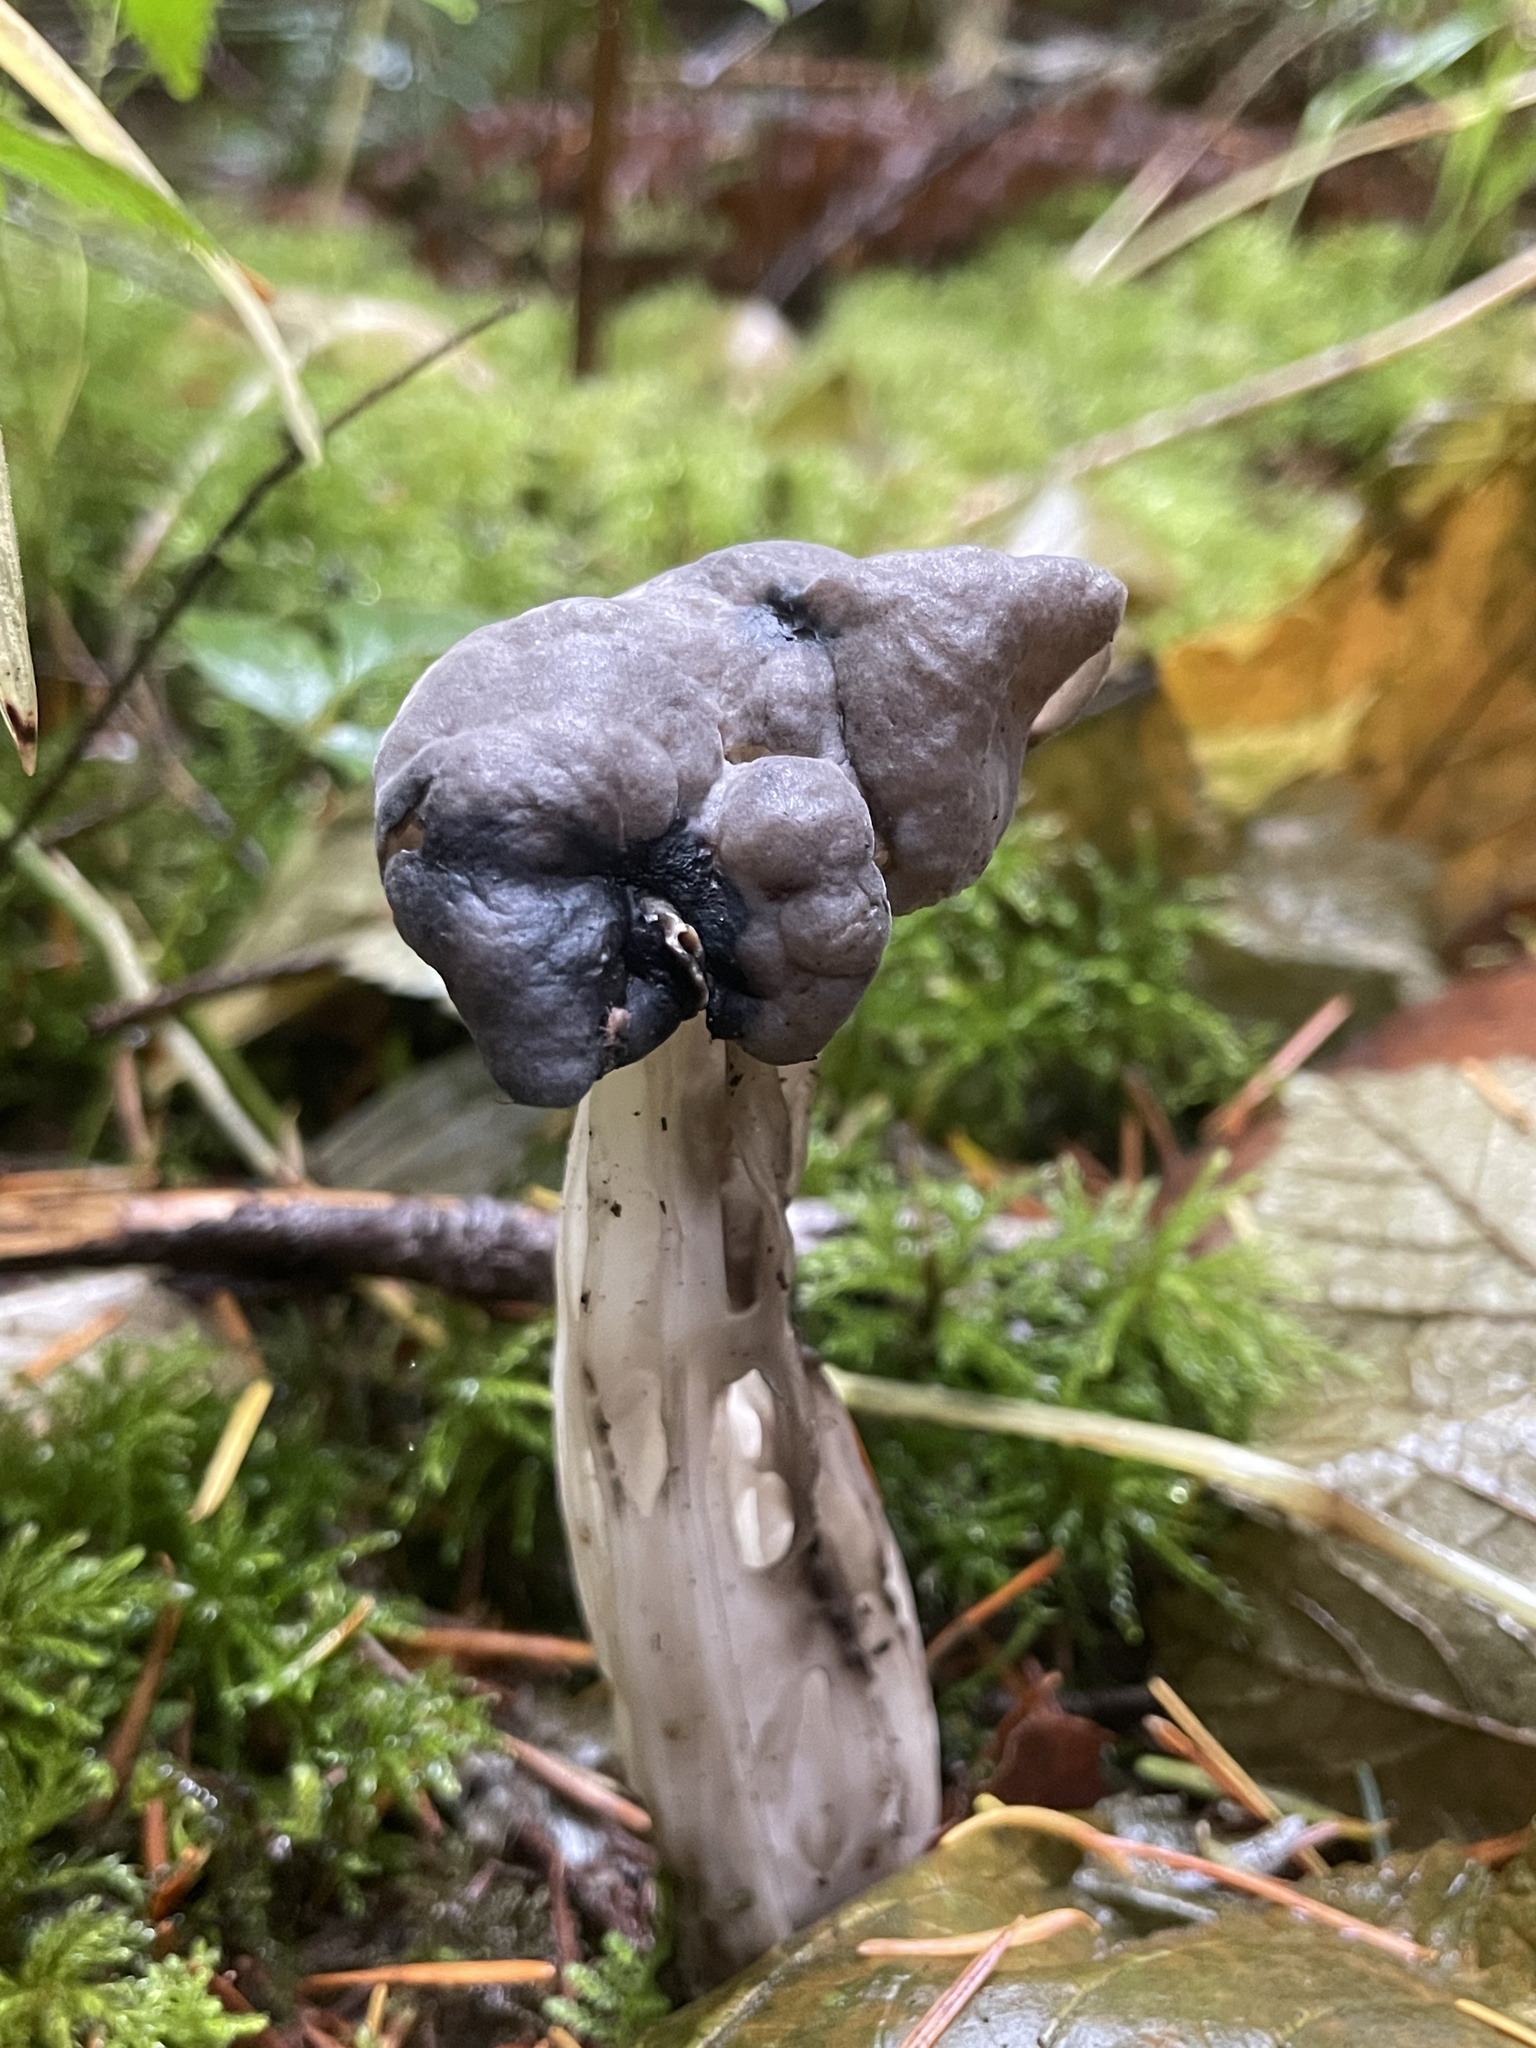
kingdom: Fungi
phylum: Ascomycota
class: Pezizomycetes
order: Pezizales
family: Helvellaceae
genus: Helvella
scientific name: Helvella vespertina
